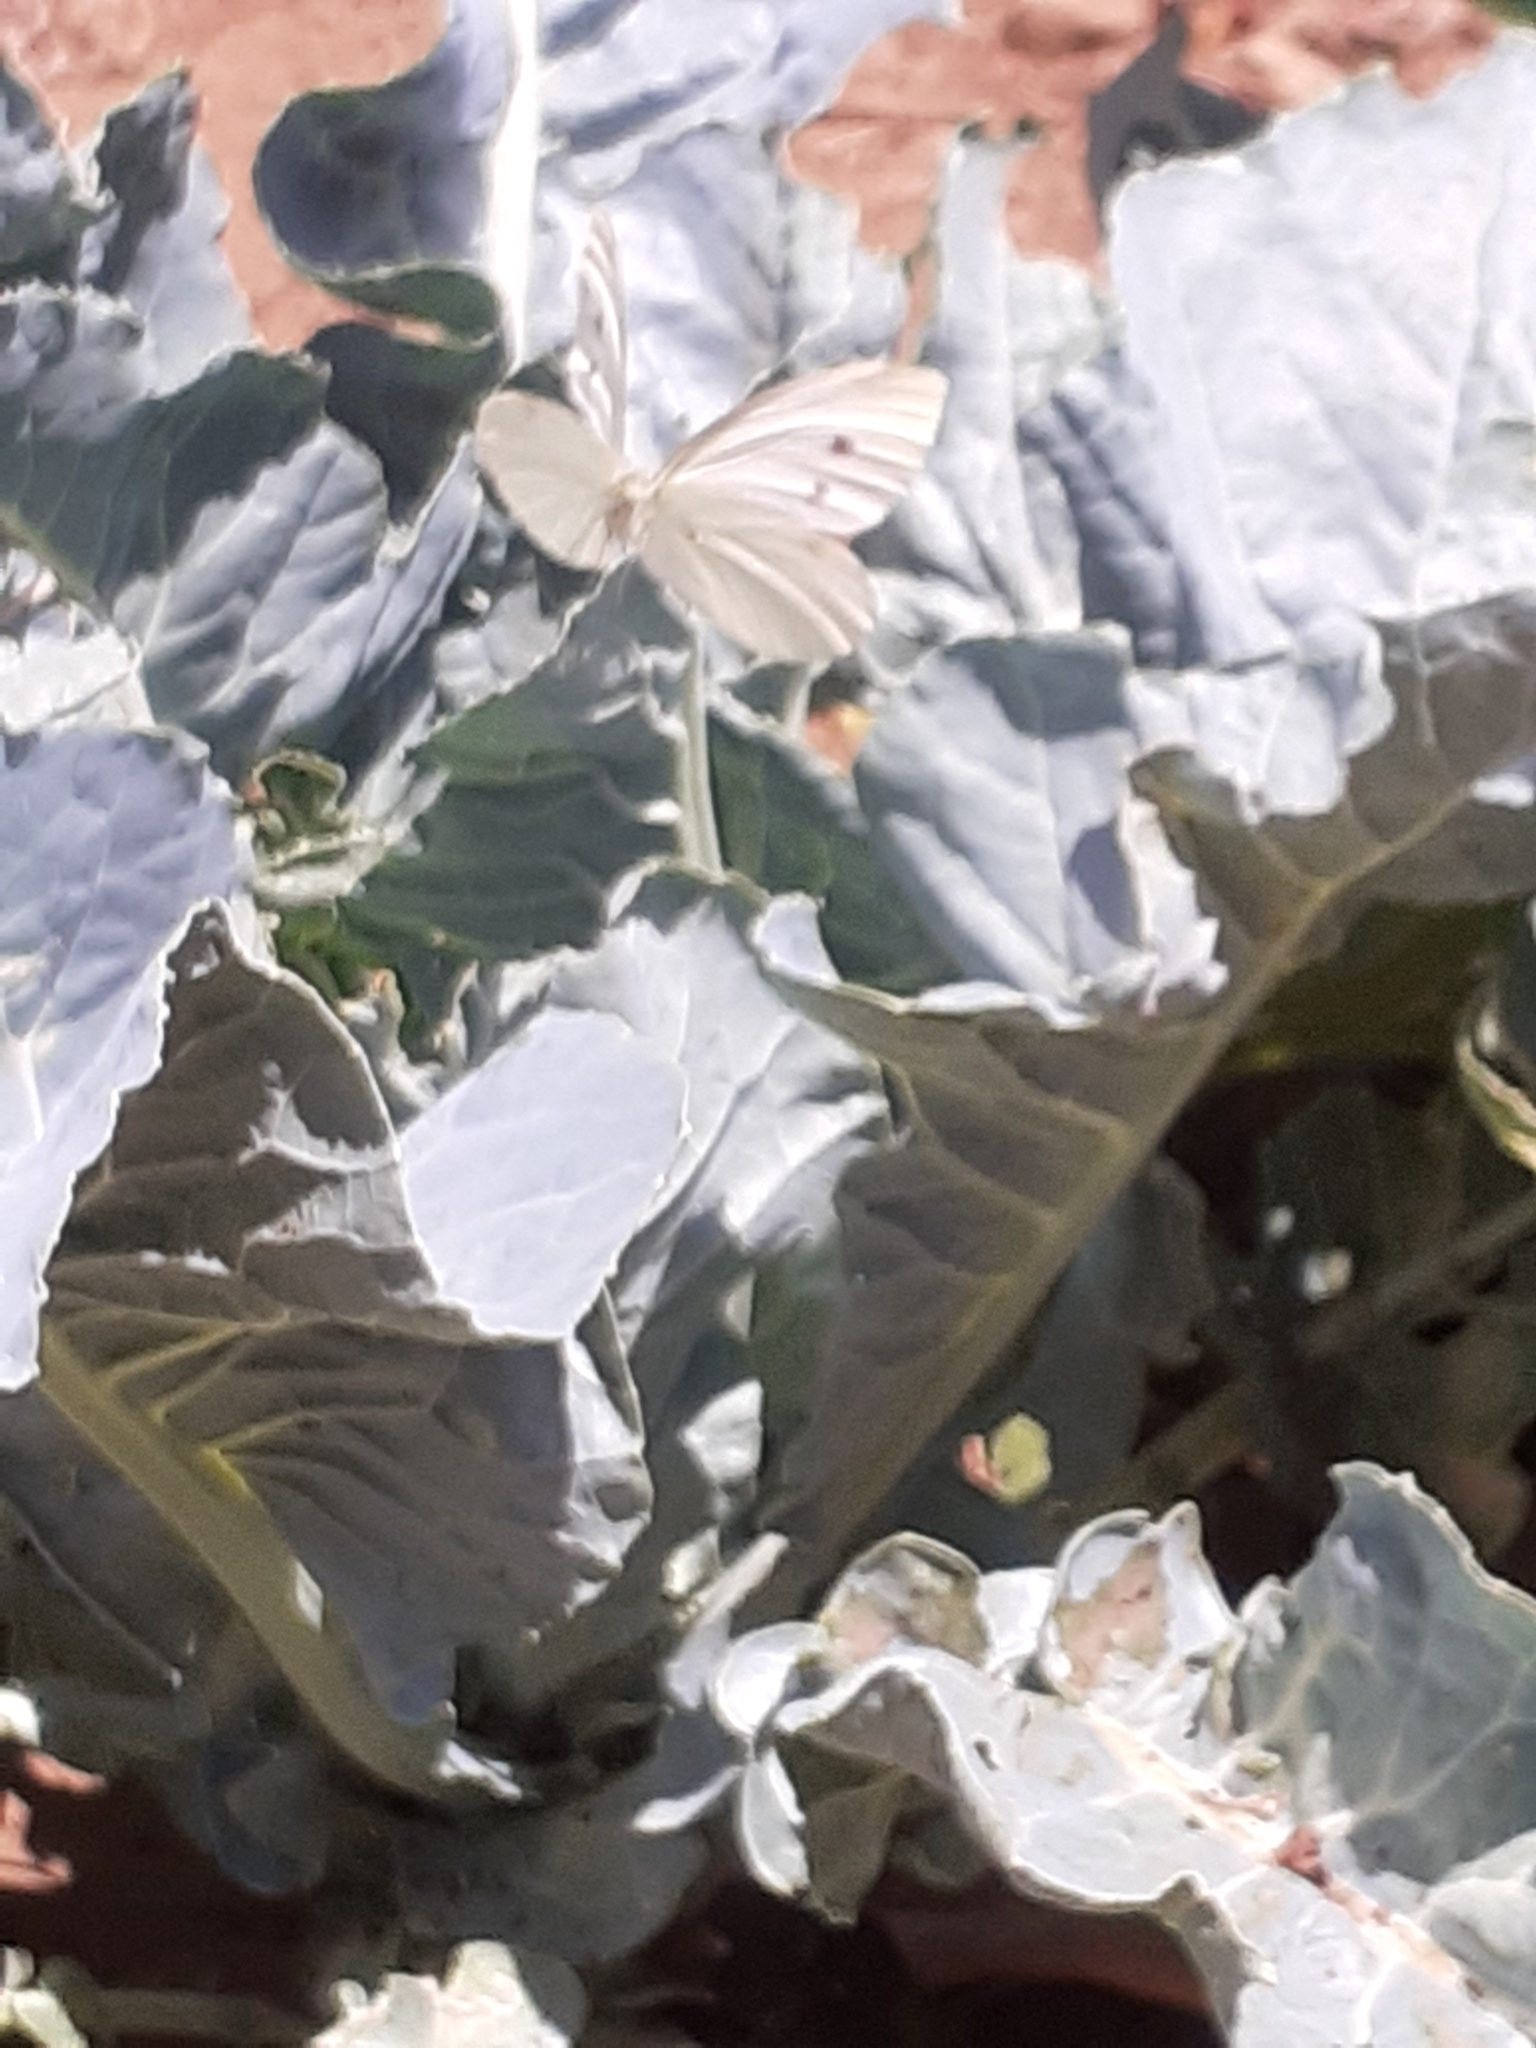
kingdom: Animalia
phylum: Arthropoda
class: Insecta
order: Lepidoptera
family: Pieridae
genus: Pieris
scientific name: Pieris rapae
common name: Small white
